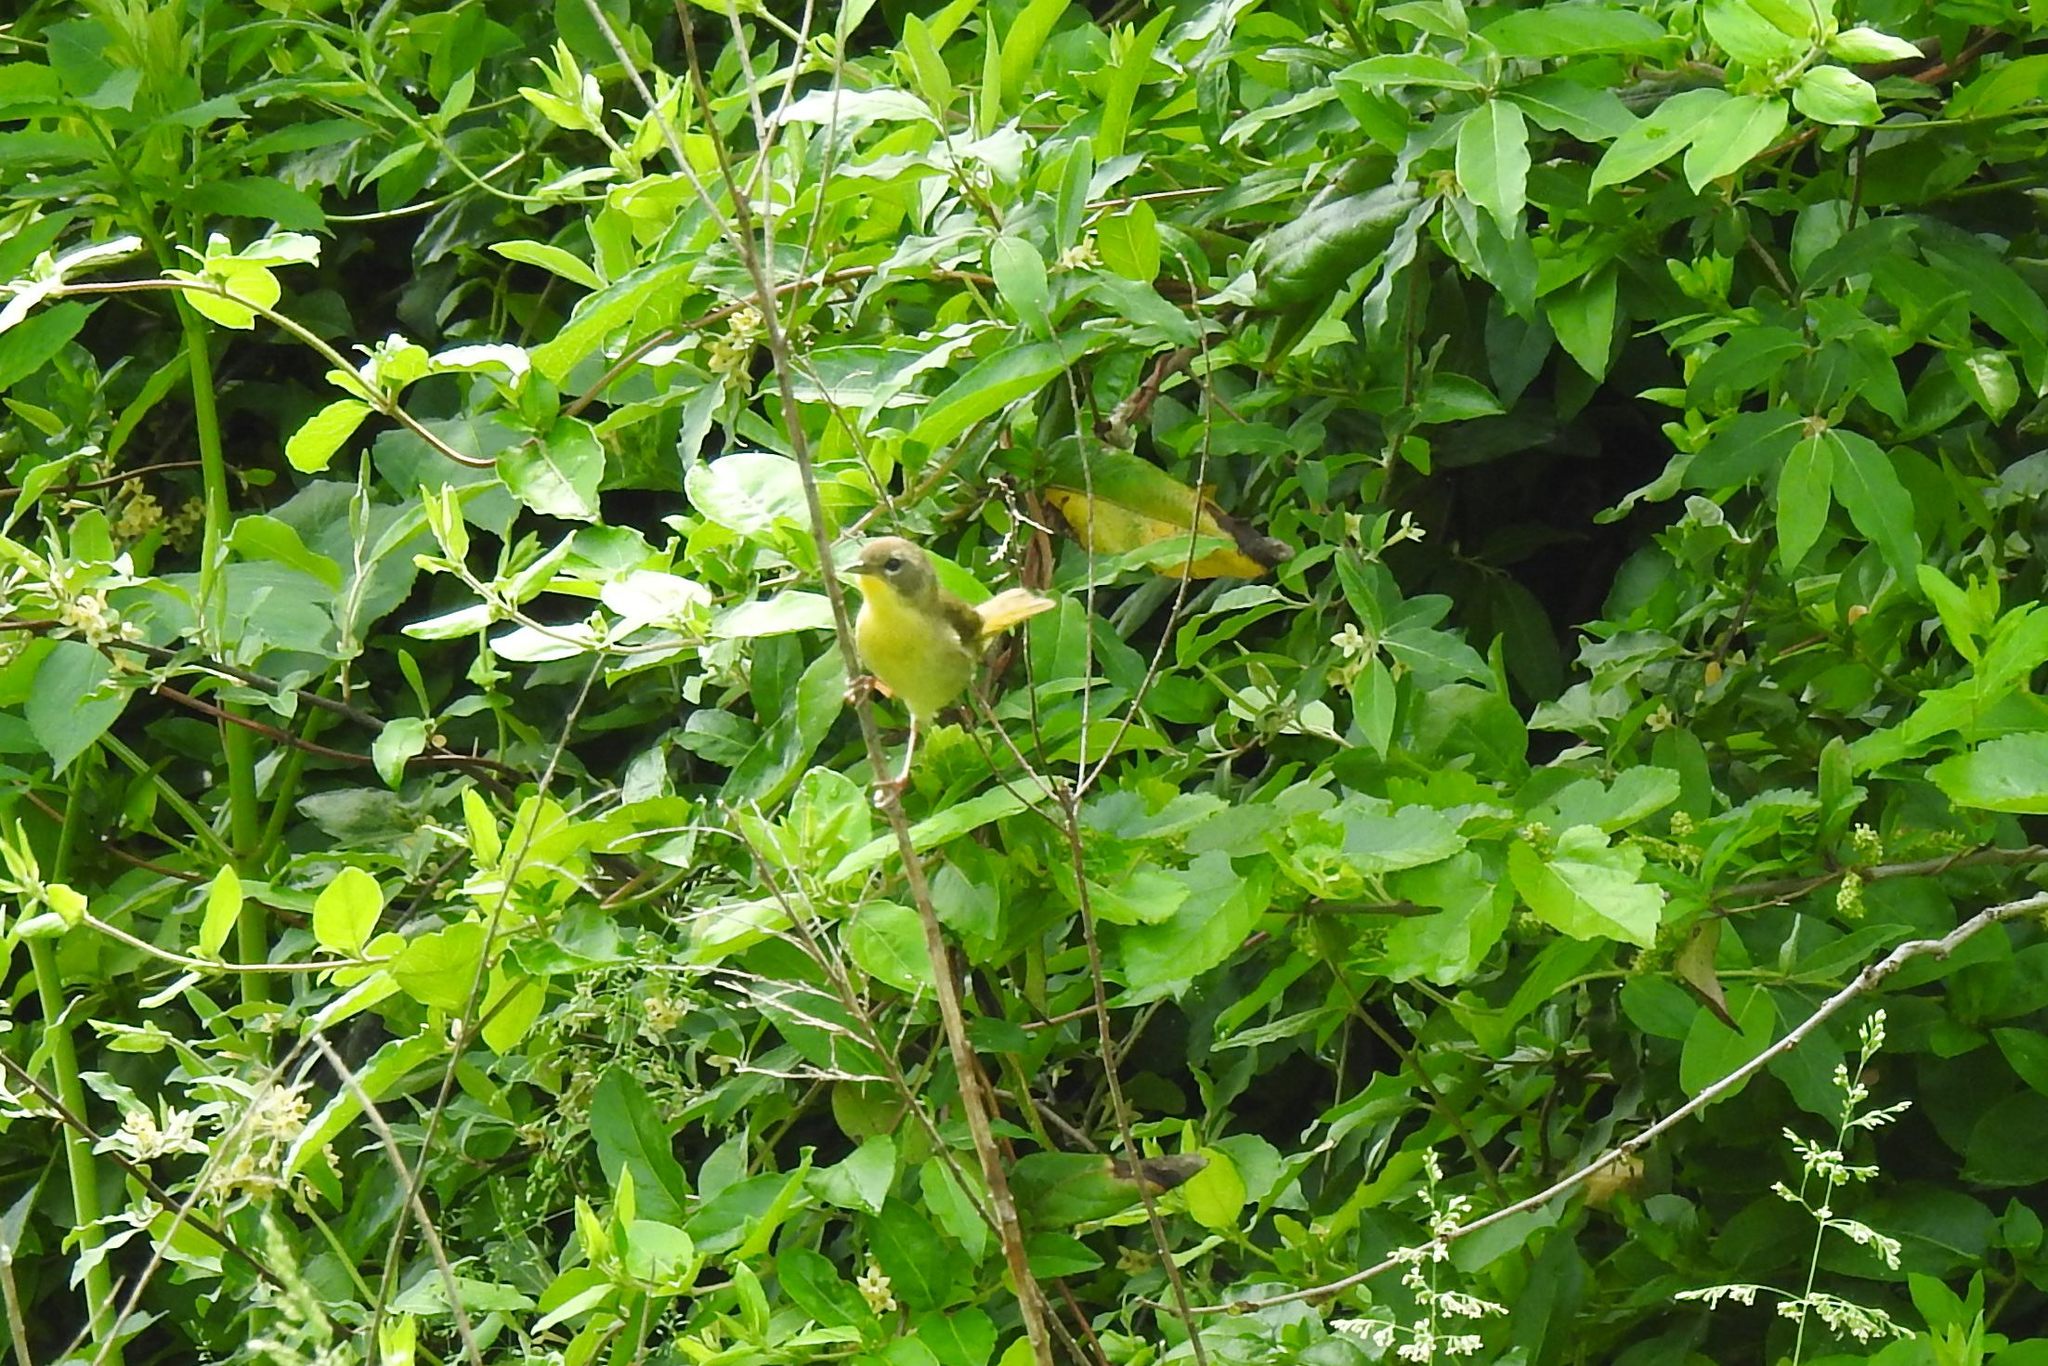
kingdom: Animalia
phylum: Chordata
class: Aves
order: Passeriformes
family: Parulidae
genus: Geothlypis
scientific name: Geothlypis trichas
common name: Common yellowthroat
